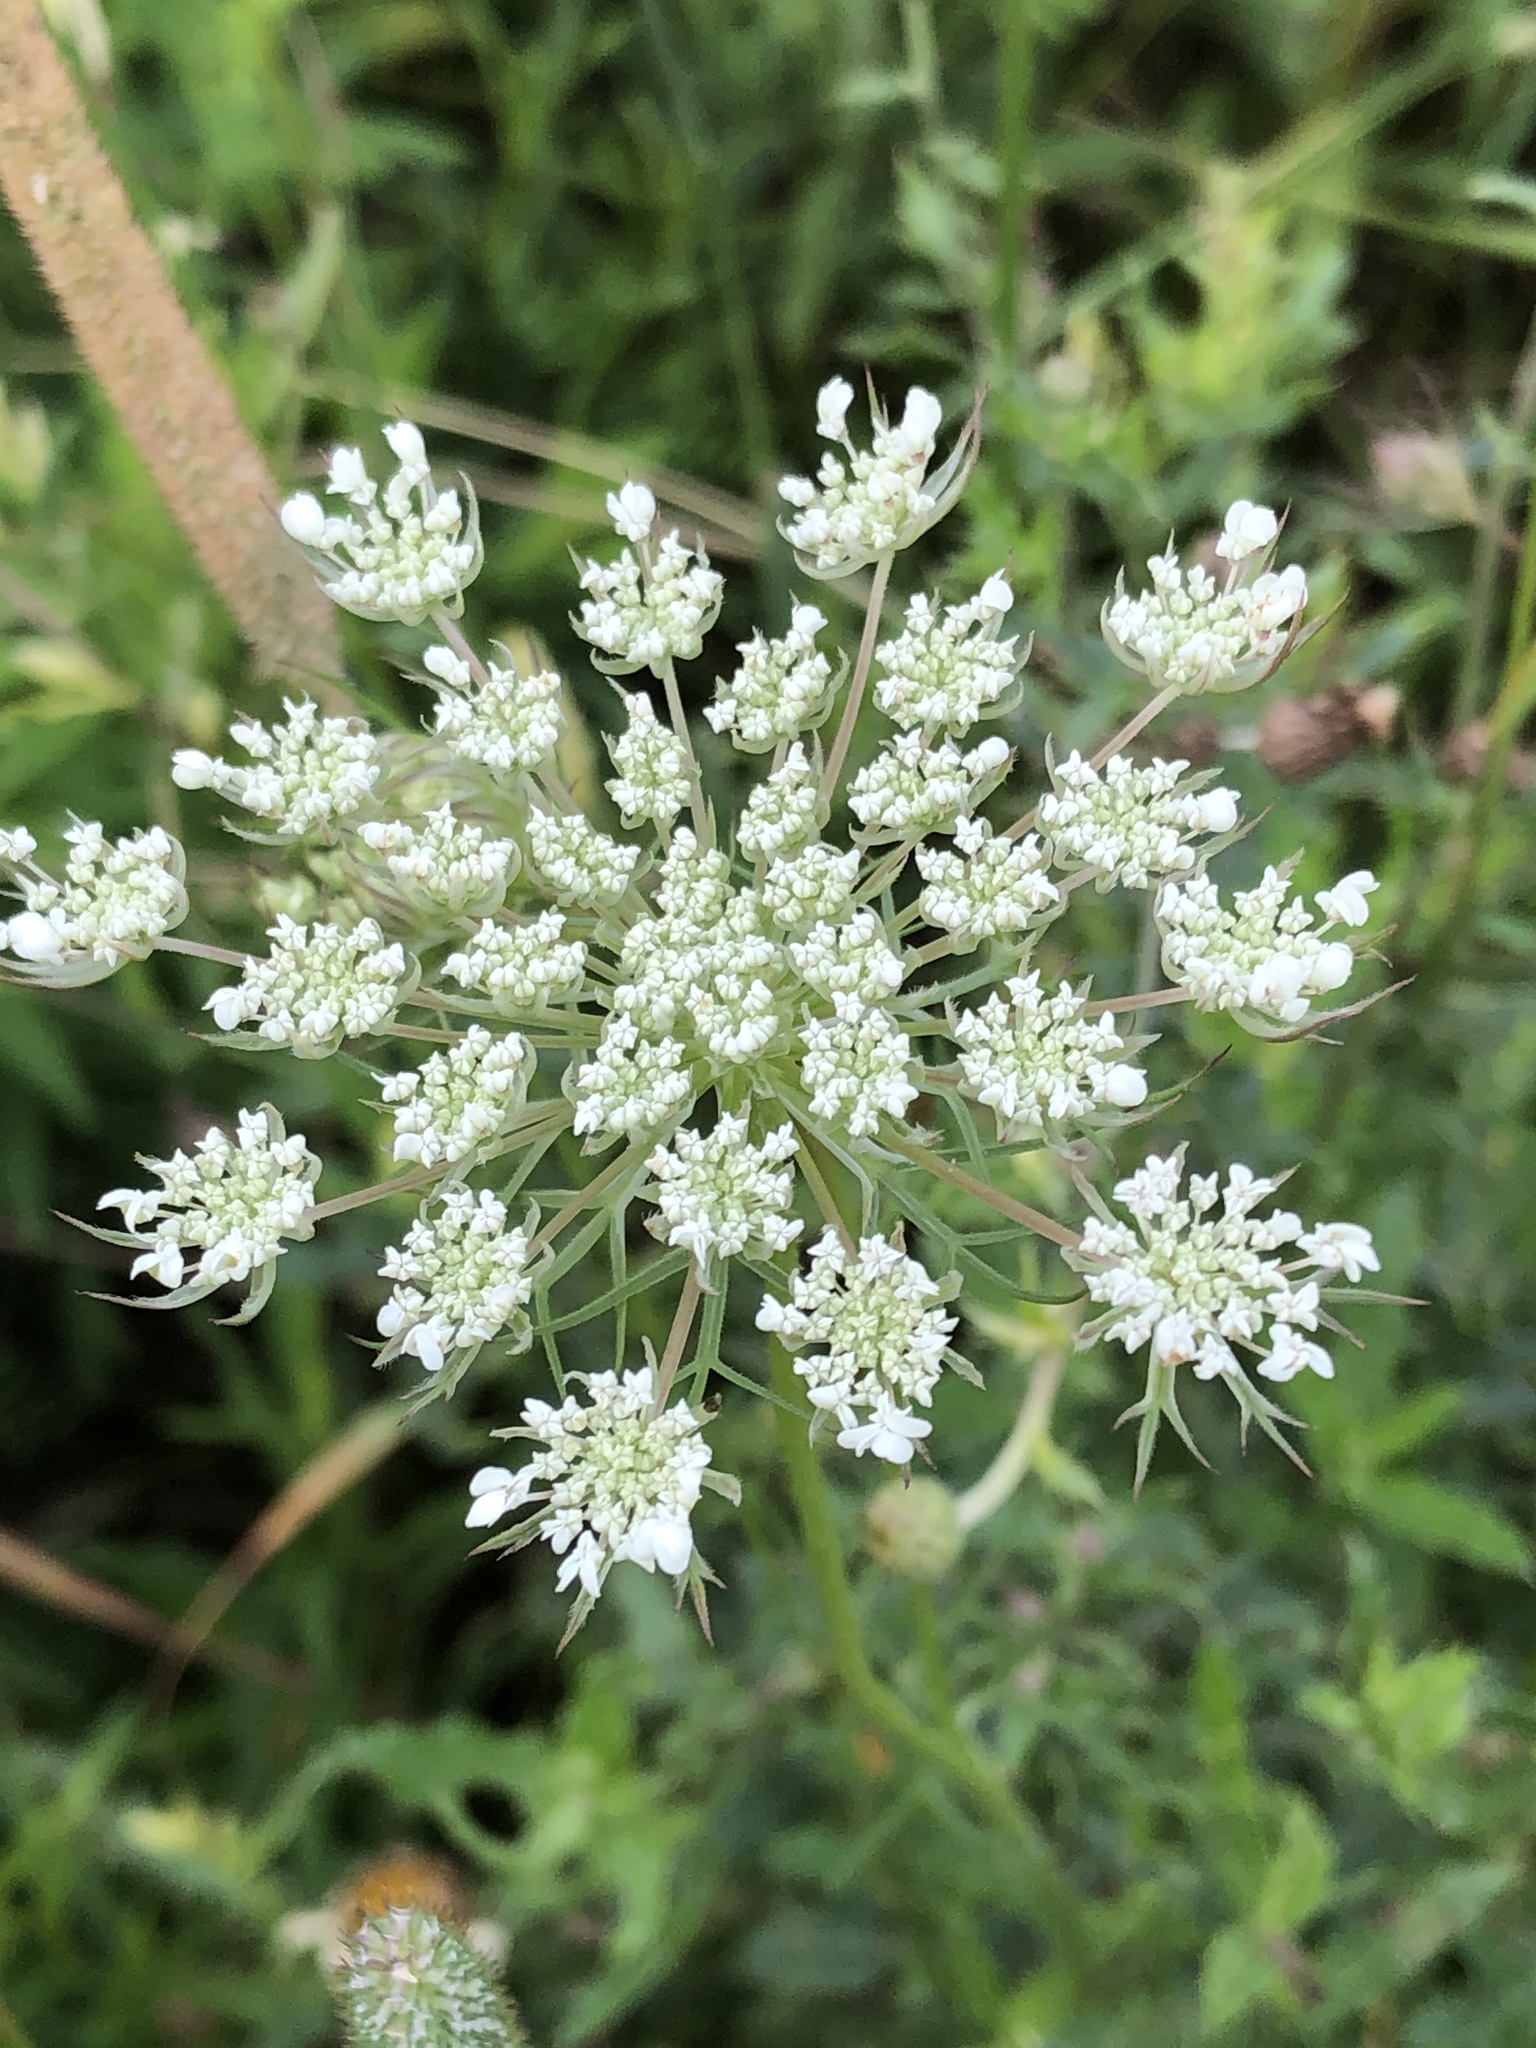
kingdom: Plantae
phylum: Tracheophyta
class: Magnoliopsida
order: Apiales
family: Apiaceae
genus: Daucus
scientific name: Daucus carota
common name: Wild carrot
